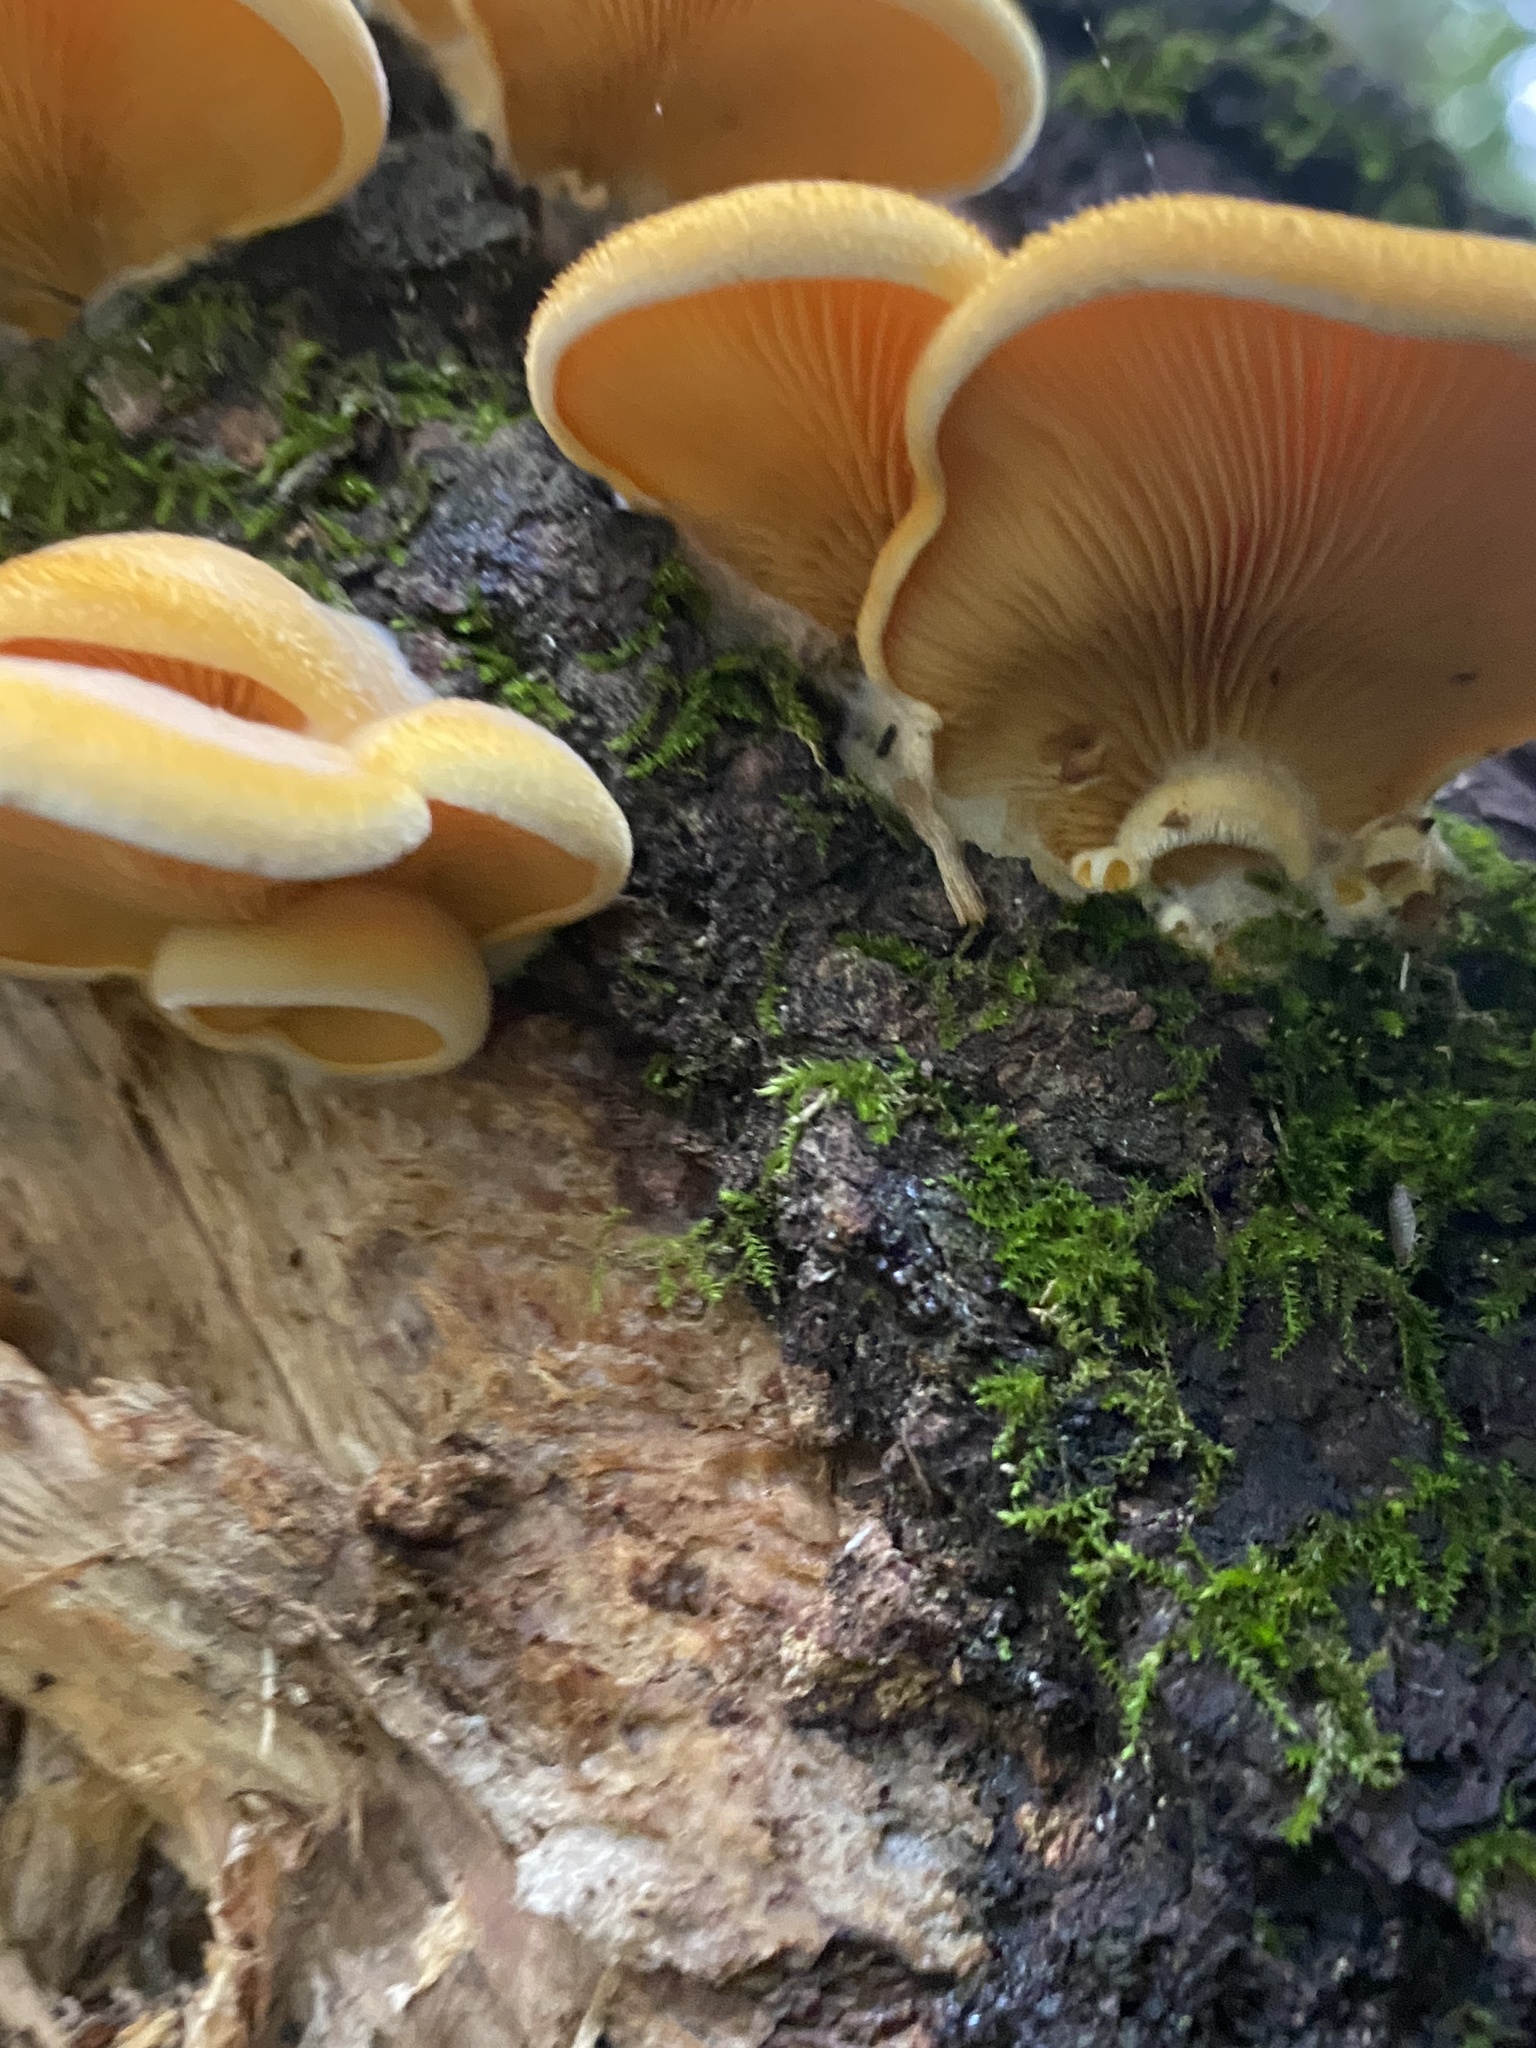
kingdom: Fungi
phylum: Basidiomycota
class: Agaricomycetes
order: Agaricales
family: Phyllotopsidaceae
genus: Phyllotopsis
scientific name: Phyllotopsis nidulans
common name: Orange mock oyster
